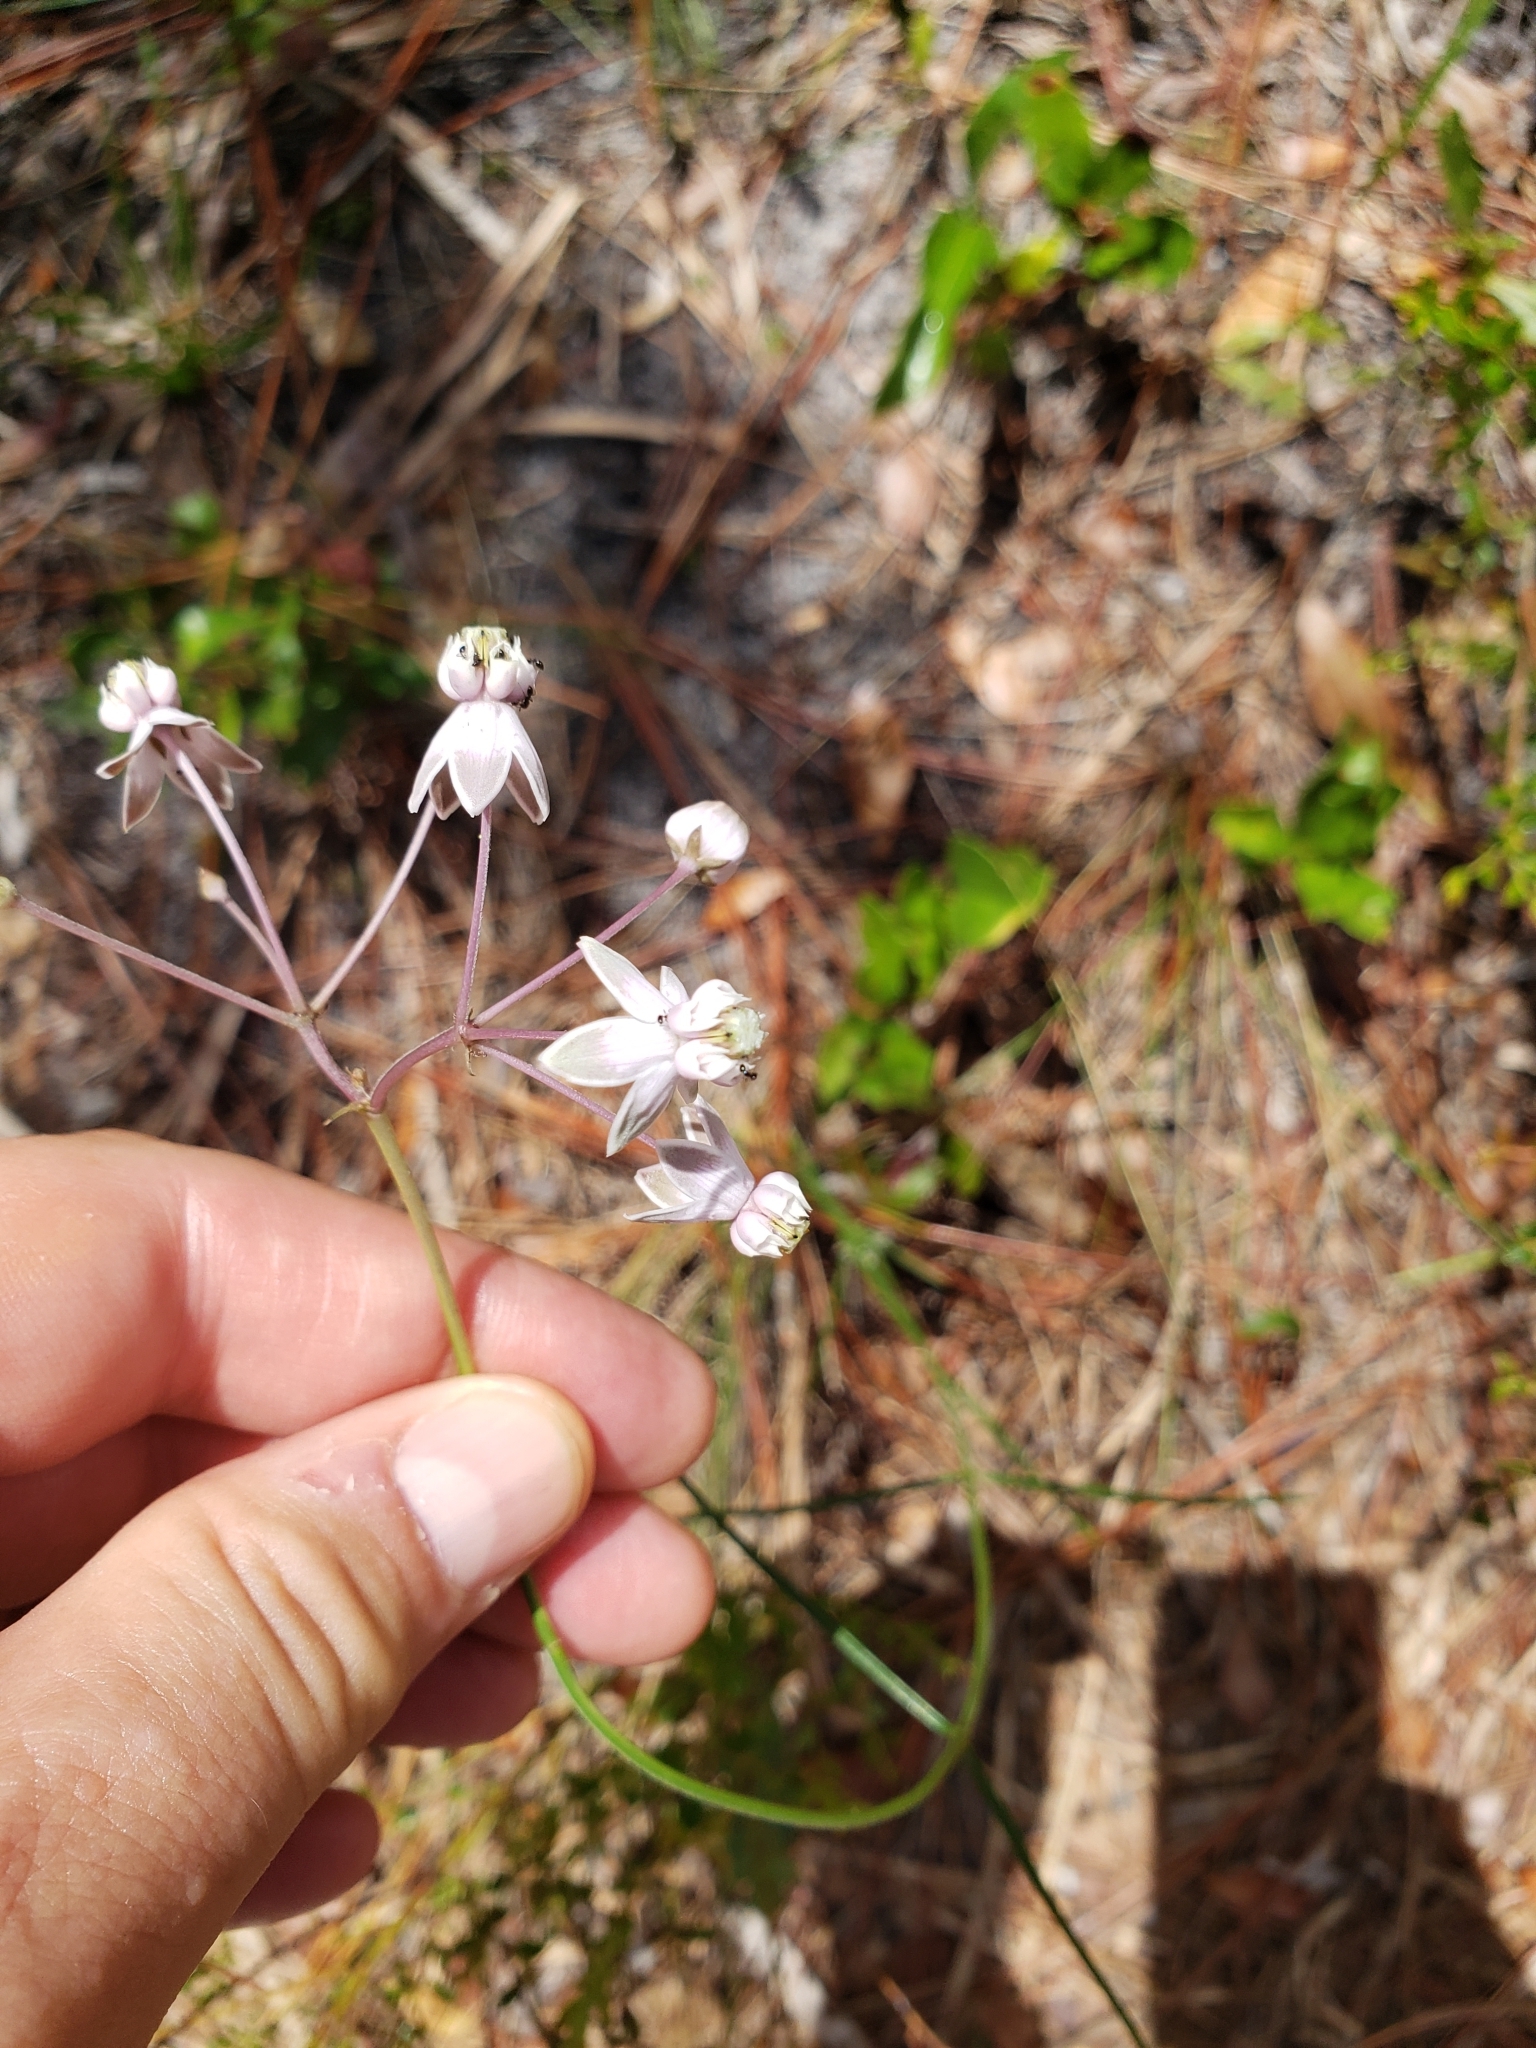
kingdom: Plantae
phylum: Tracheophyta
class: Magnoliopsida
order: Gentianales
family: Apocynaceae
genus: Asclepias
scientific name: Asclepias cinerea
